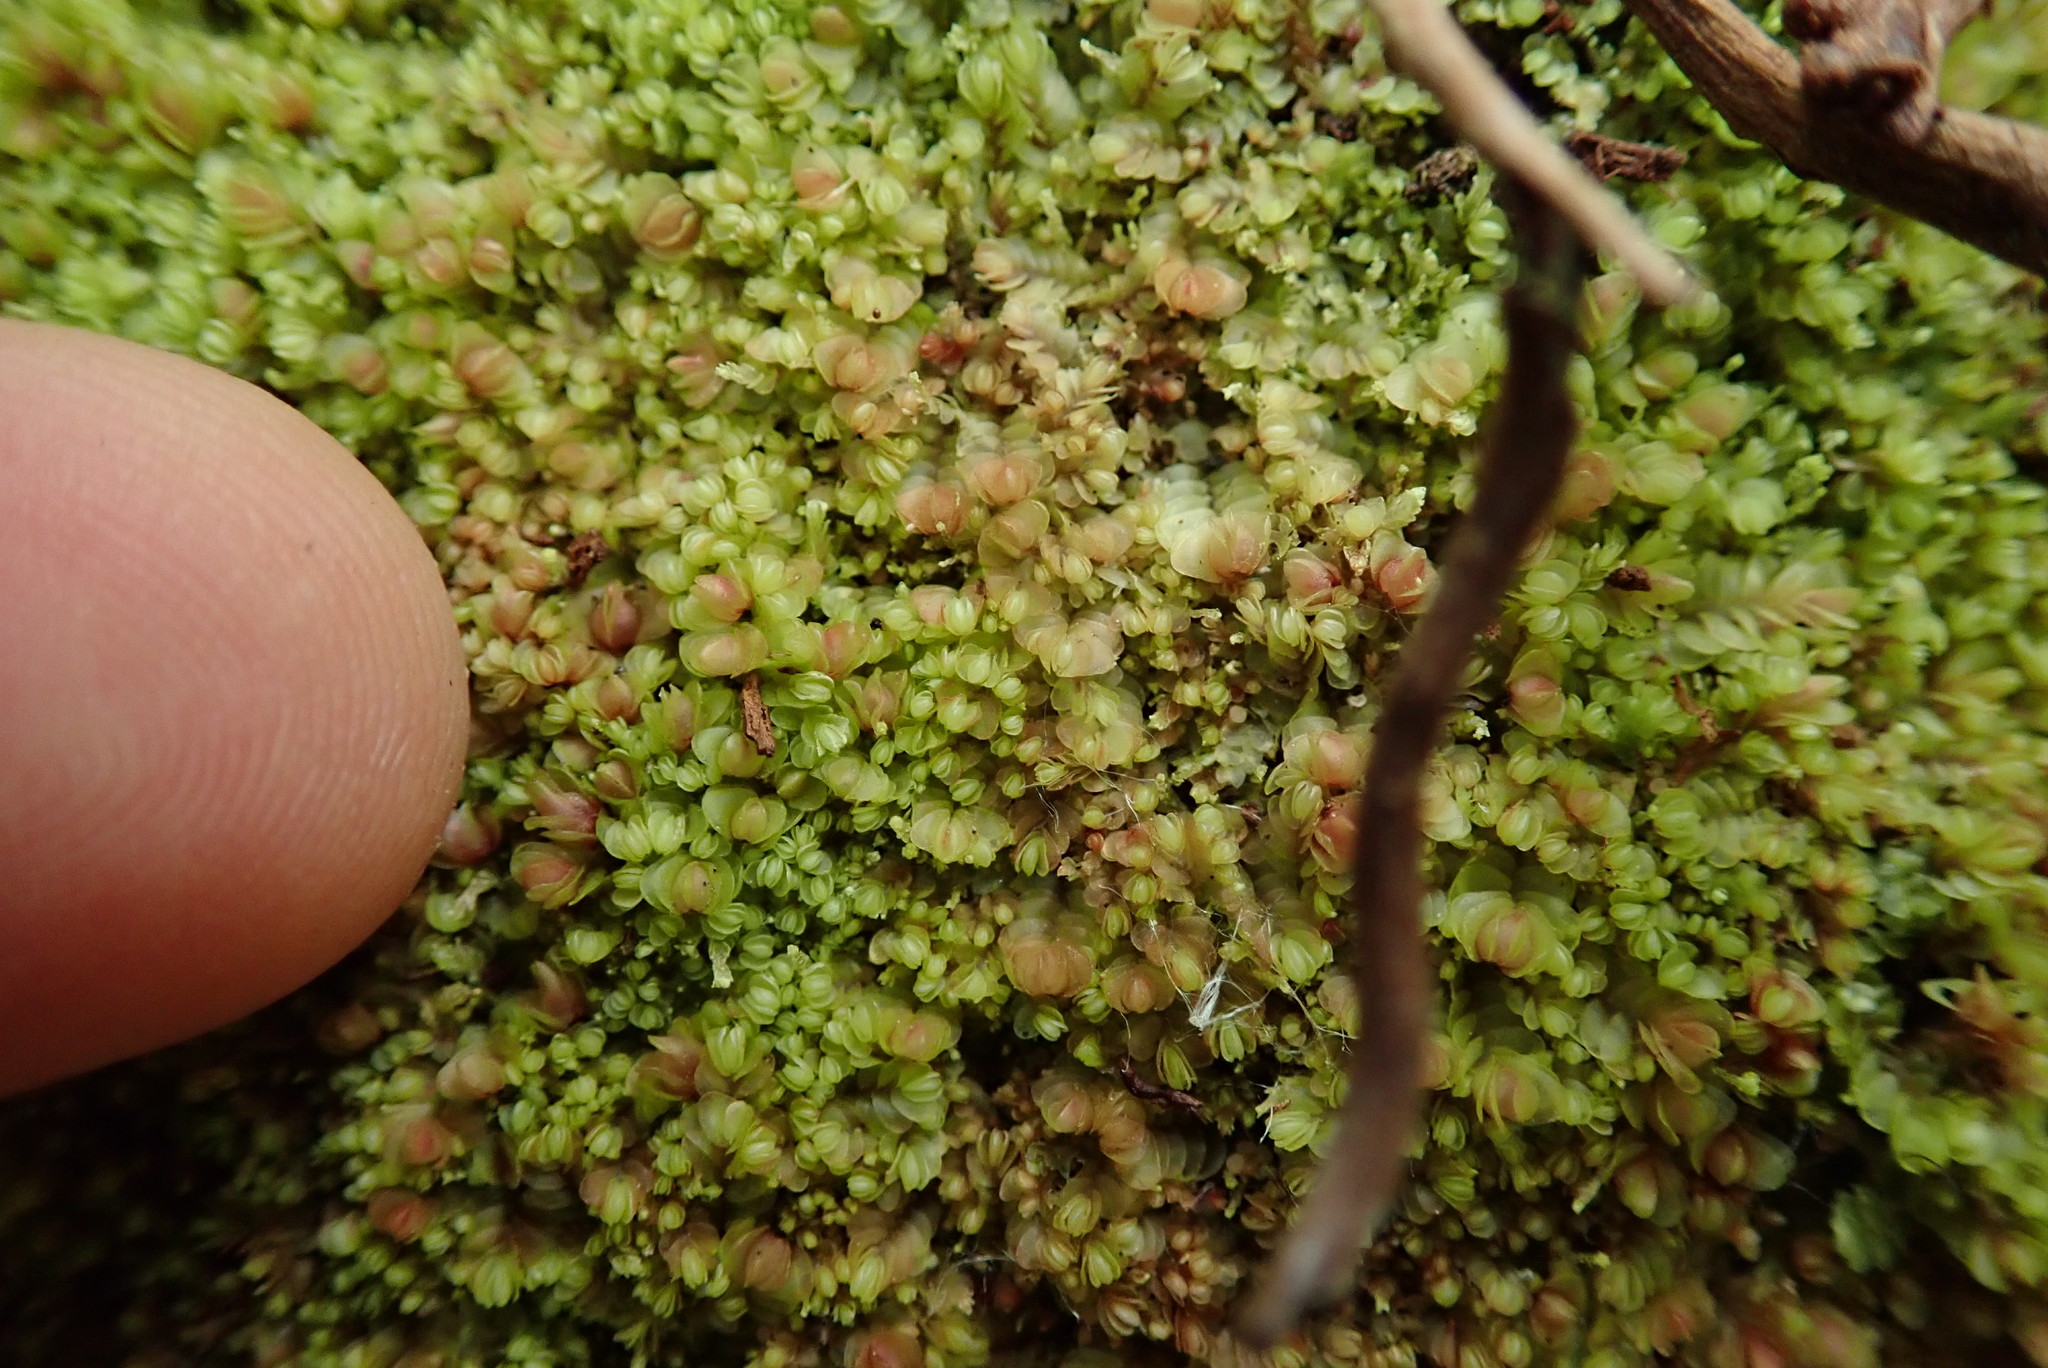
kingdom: Plantae
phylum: Marchantiophyta
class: Jungermanniopsida
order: Jungermanniales
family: Gyrothyraceae
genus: Gyrothyra
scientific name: Gyrothyra underwoodiana
